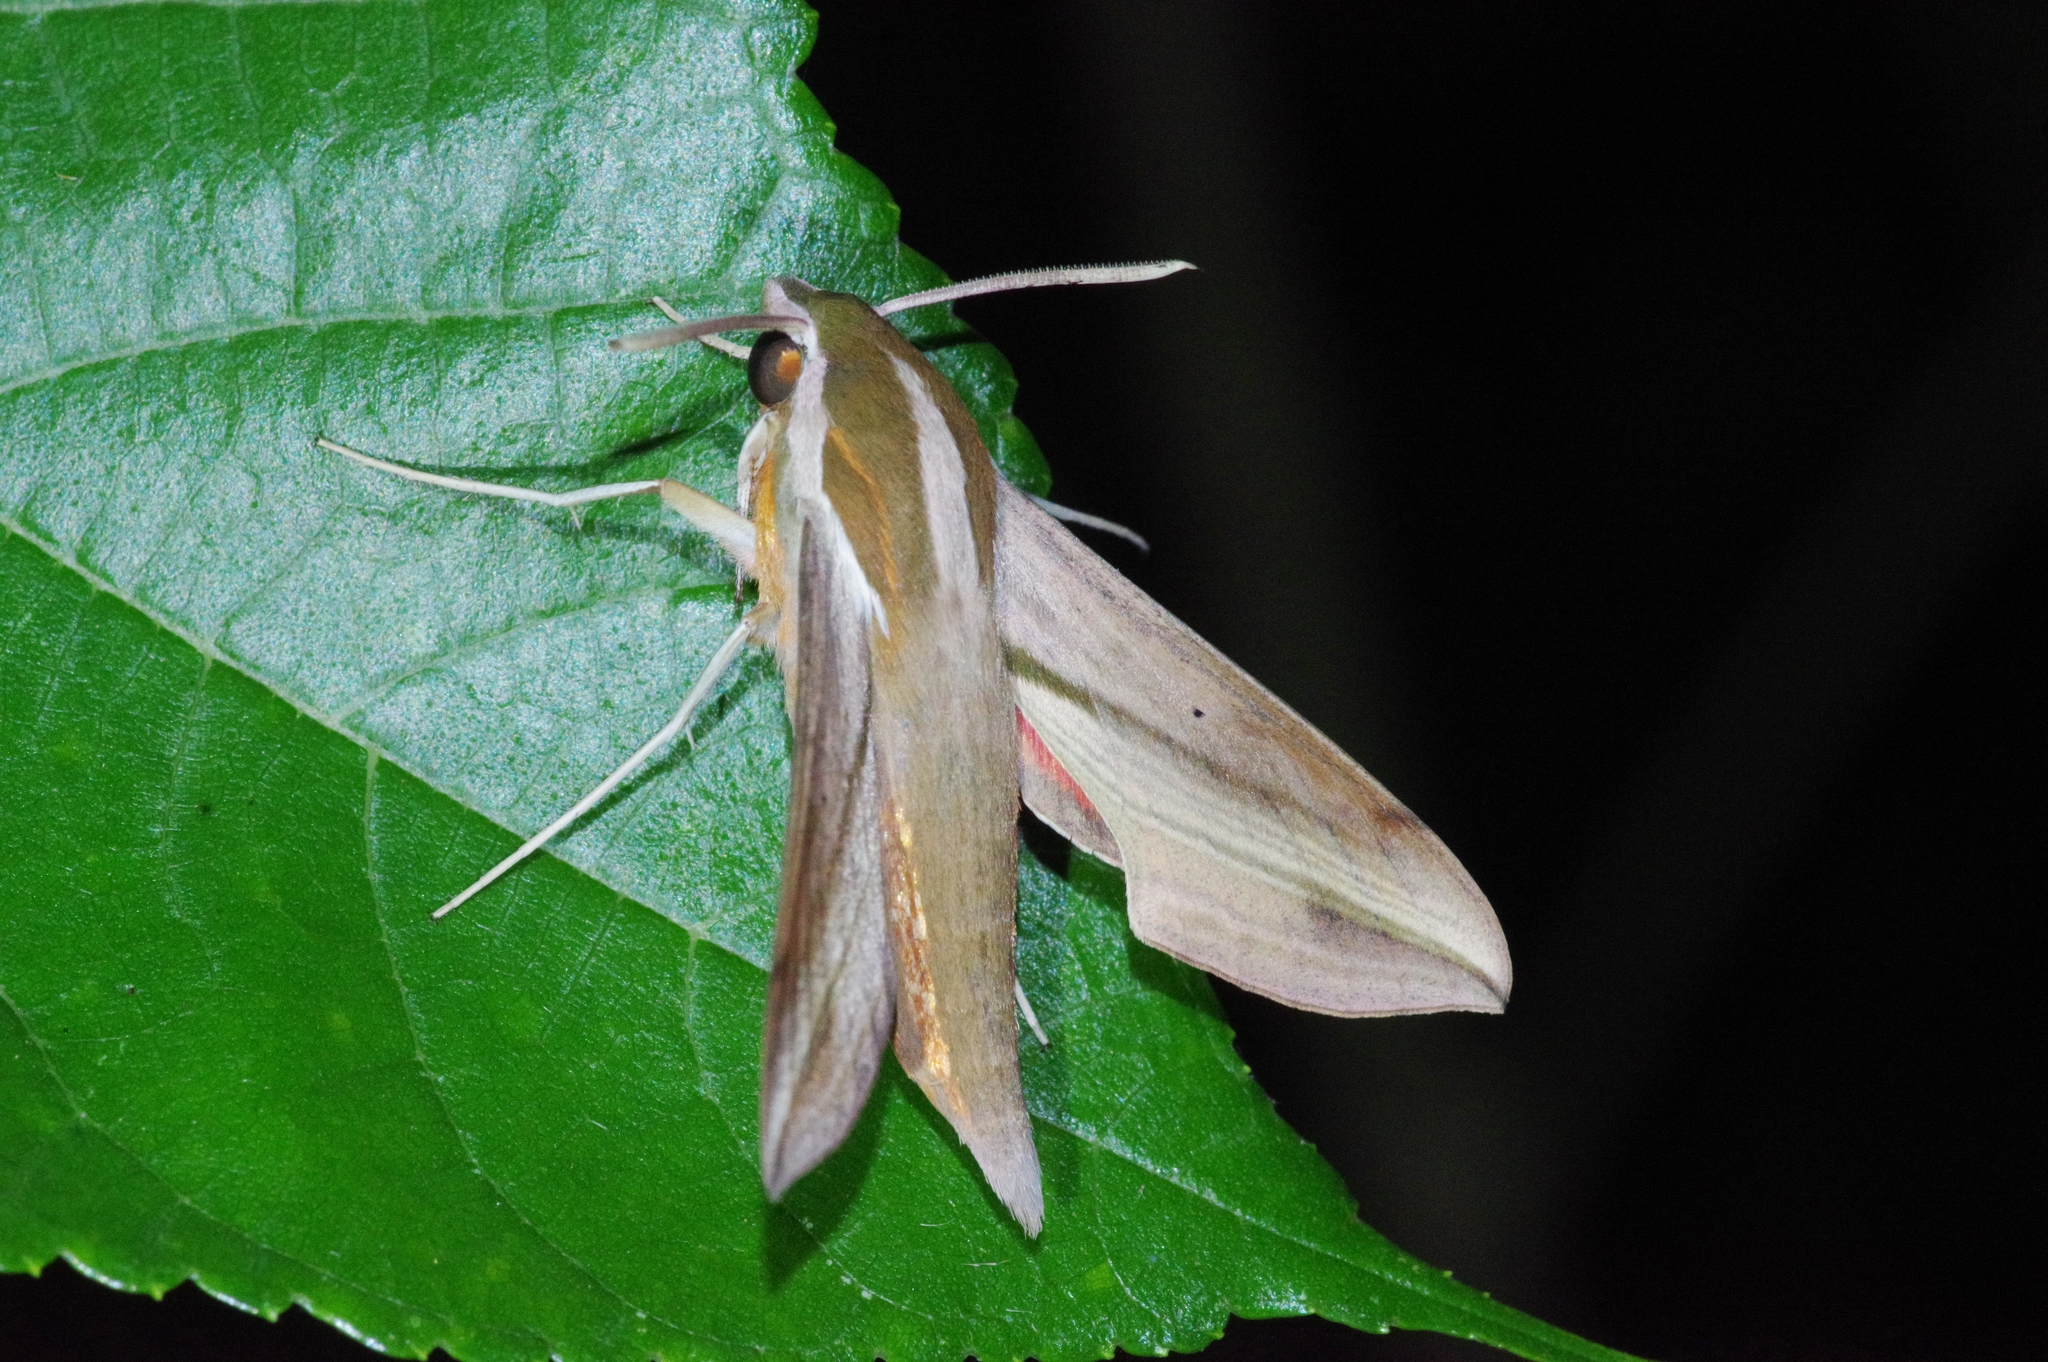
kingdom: Animalia
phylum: Arthropoda
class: Insecta
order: Lepidoptera
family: Sphingidae
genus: Hippotion
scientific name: Hippotion rosetta
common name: Vine hawk moth
